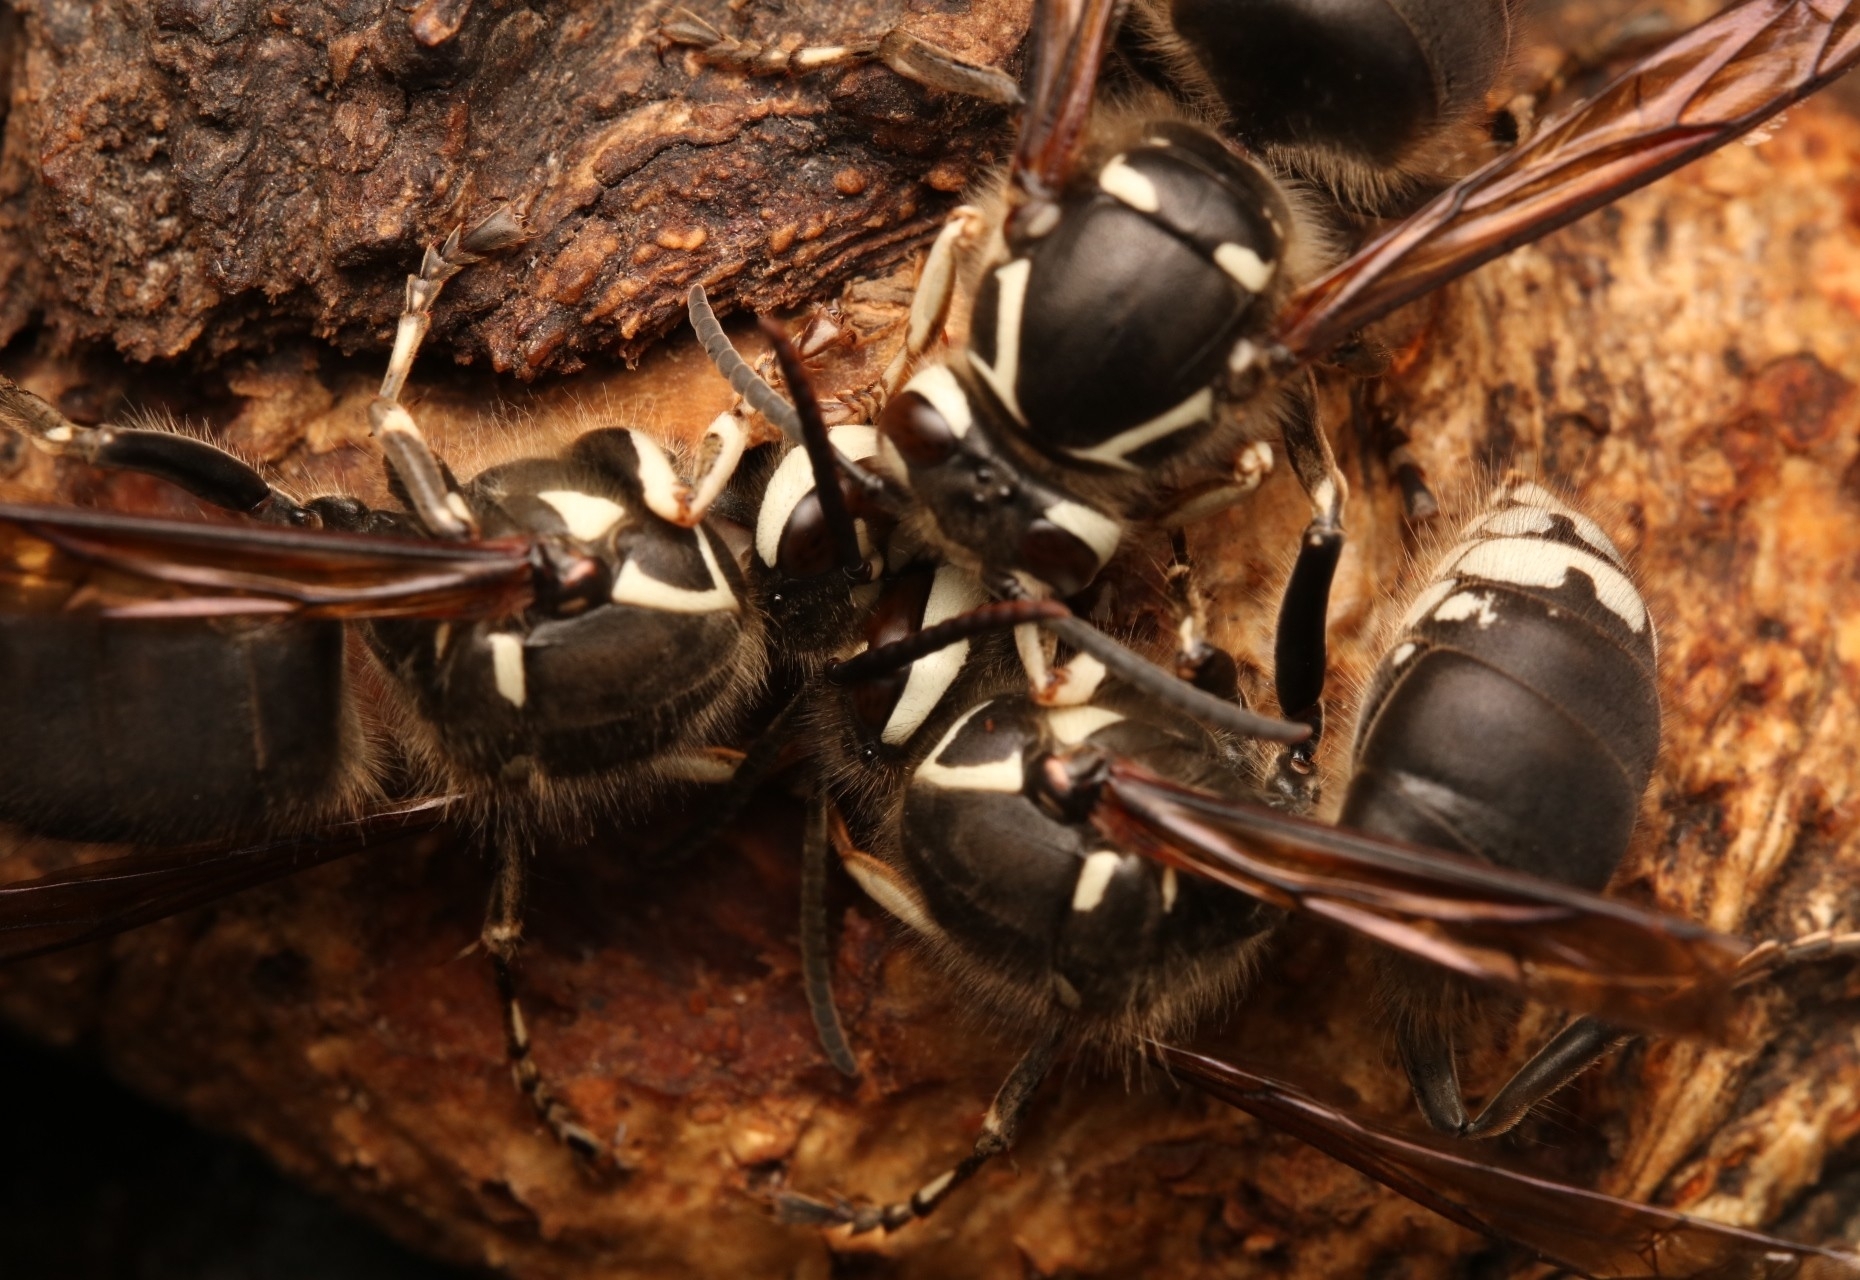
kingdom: Animalia
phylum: Arthropoda
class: Insecta
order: Hymenoptera
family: Vespidae
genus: Dolichovespula
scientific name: Dolichovespula maculata
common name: Bald-faced hornet
